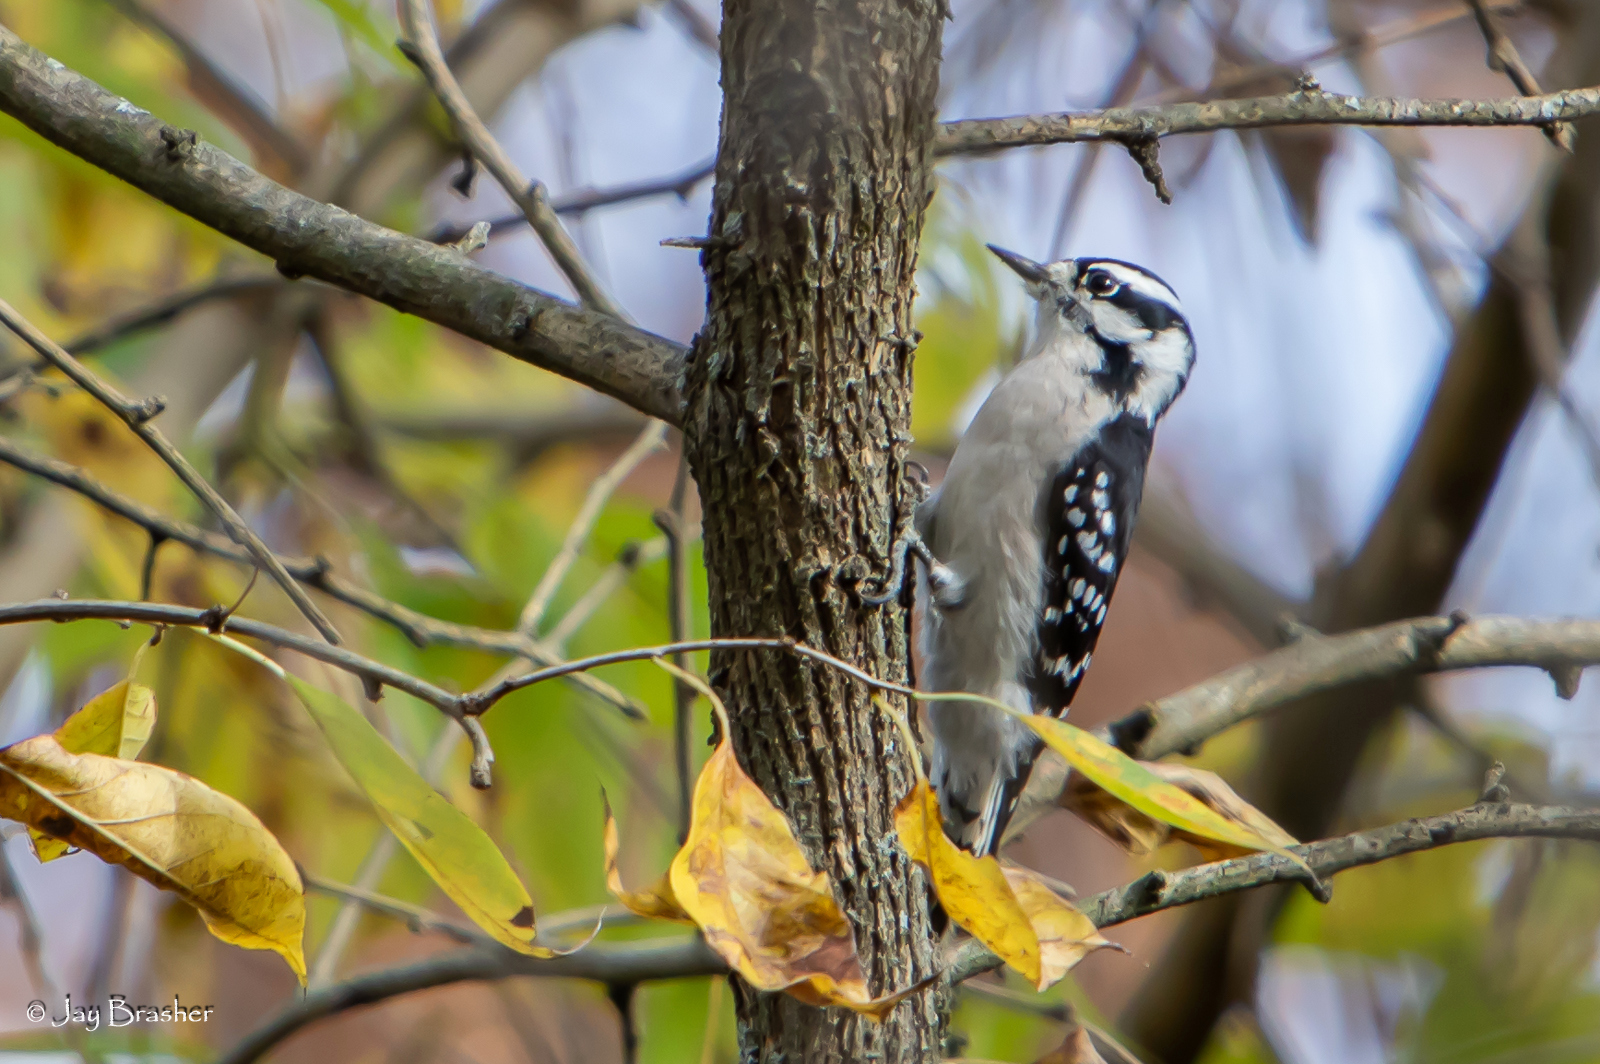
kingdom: Animalia
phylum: Chordata
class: Aves
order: Piciformes
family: Picidae
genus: Dryobates
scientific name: Dryobates pubescens
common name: Downy woodpecker
